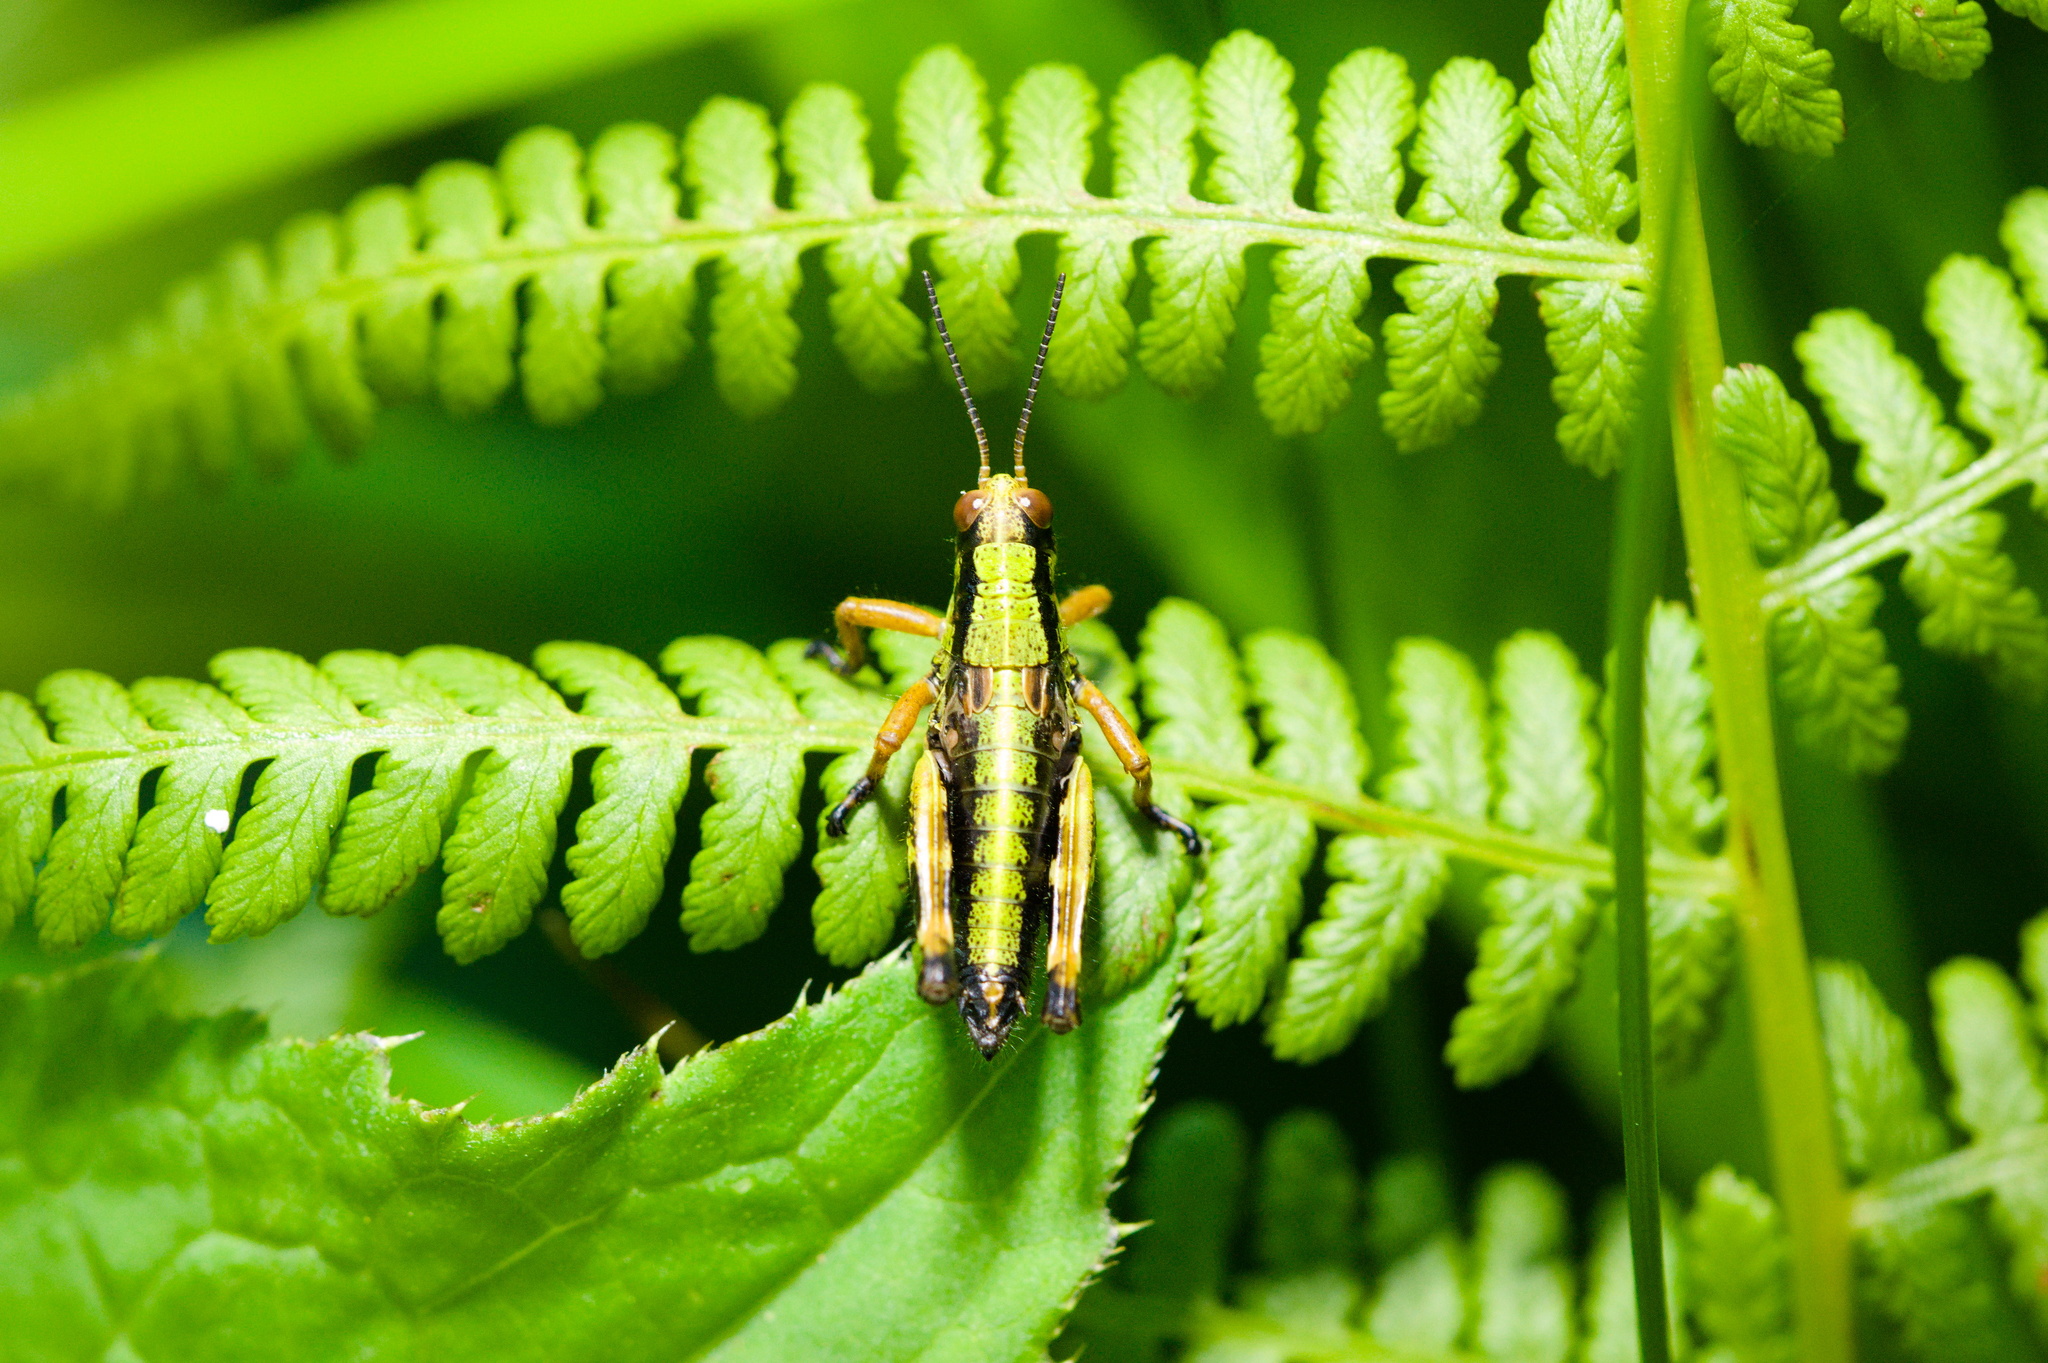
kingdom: Animalia
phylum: Arthropoda
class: Insecta
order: Orthoptera
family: Acrididae
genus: Miramella
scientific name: Miramella alpina
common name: Green mountain grasshopper
